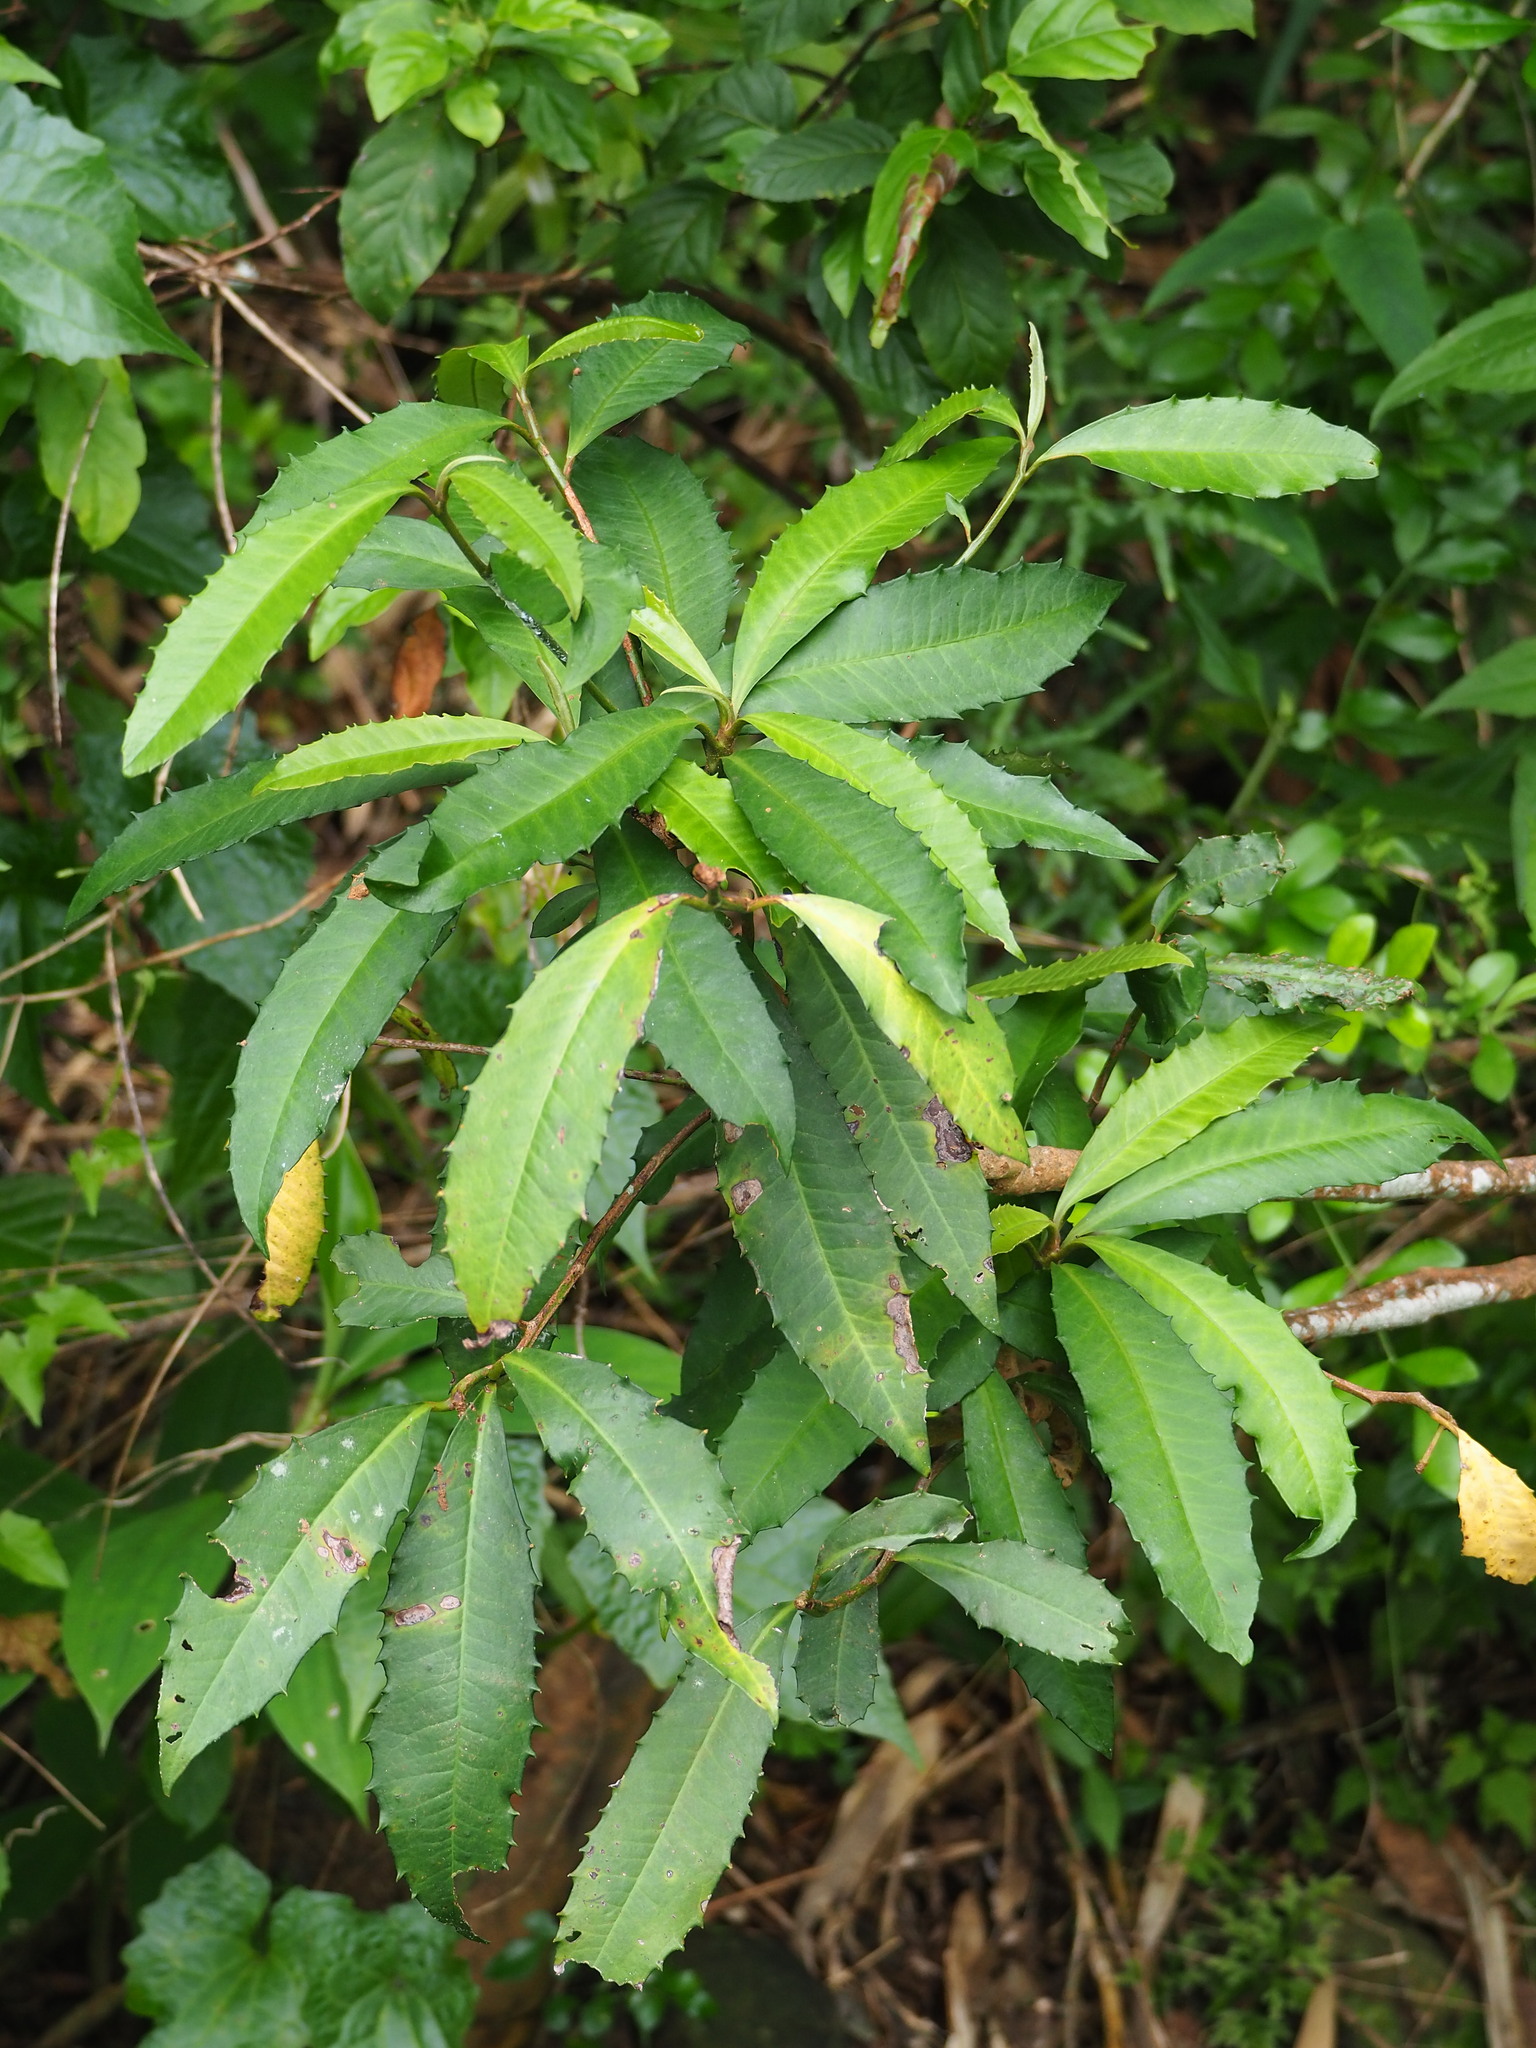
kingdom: Plantae
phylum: Tracheophyta
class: Magnoliopsida
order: Ericales
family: Primulaceae
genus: Ardisia
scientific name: Ardisia cornudentata
